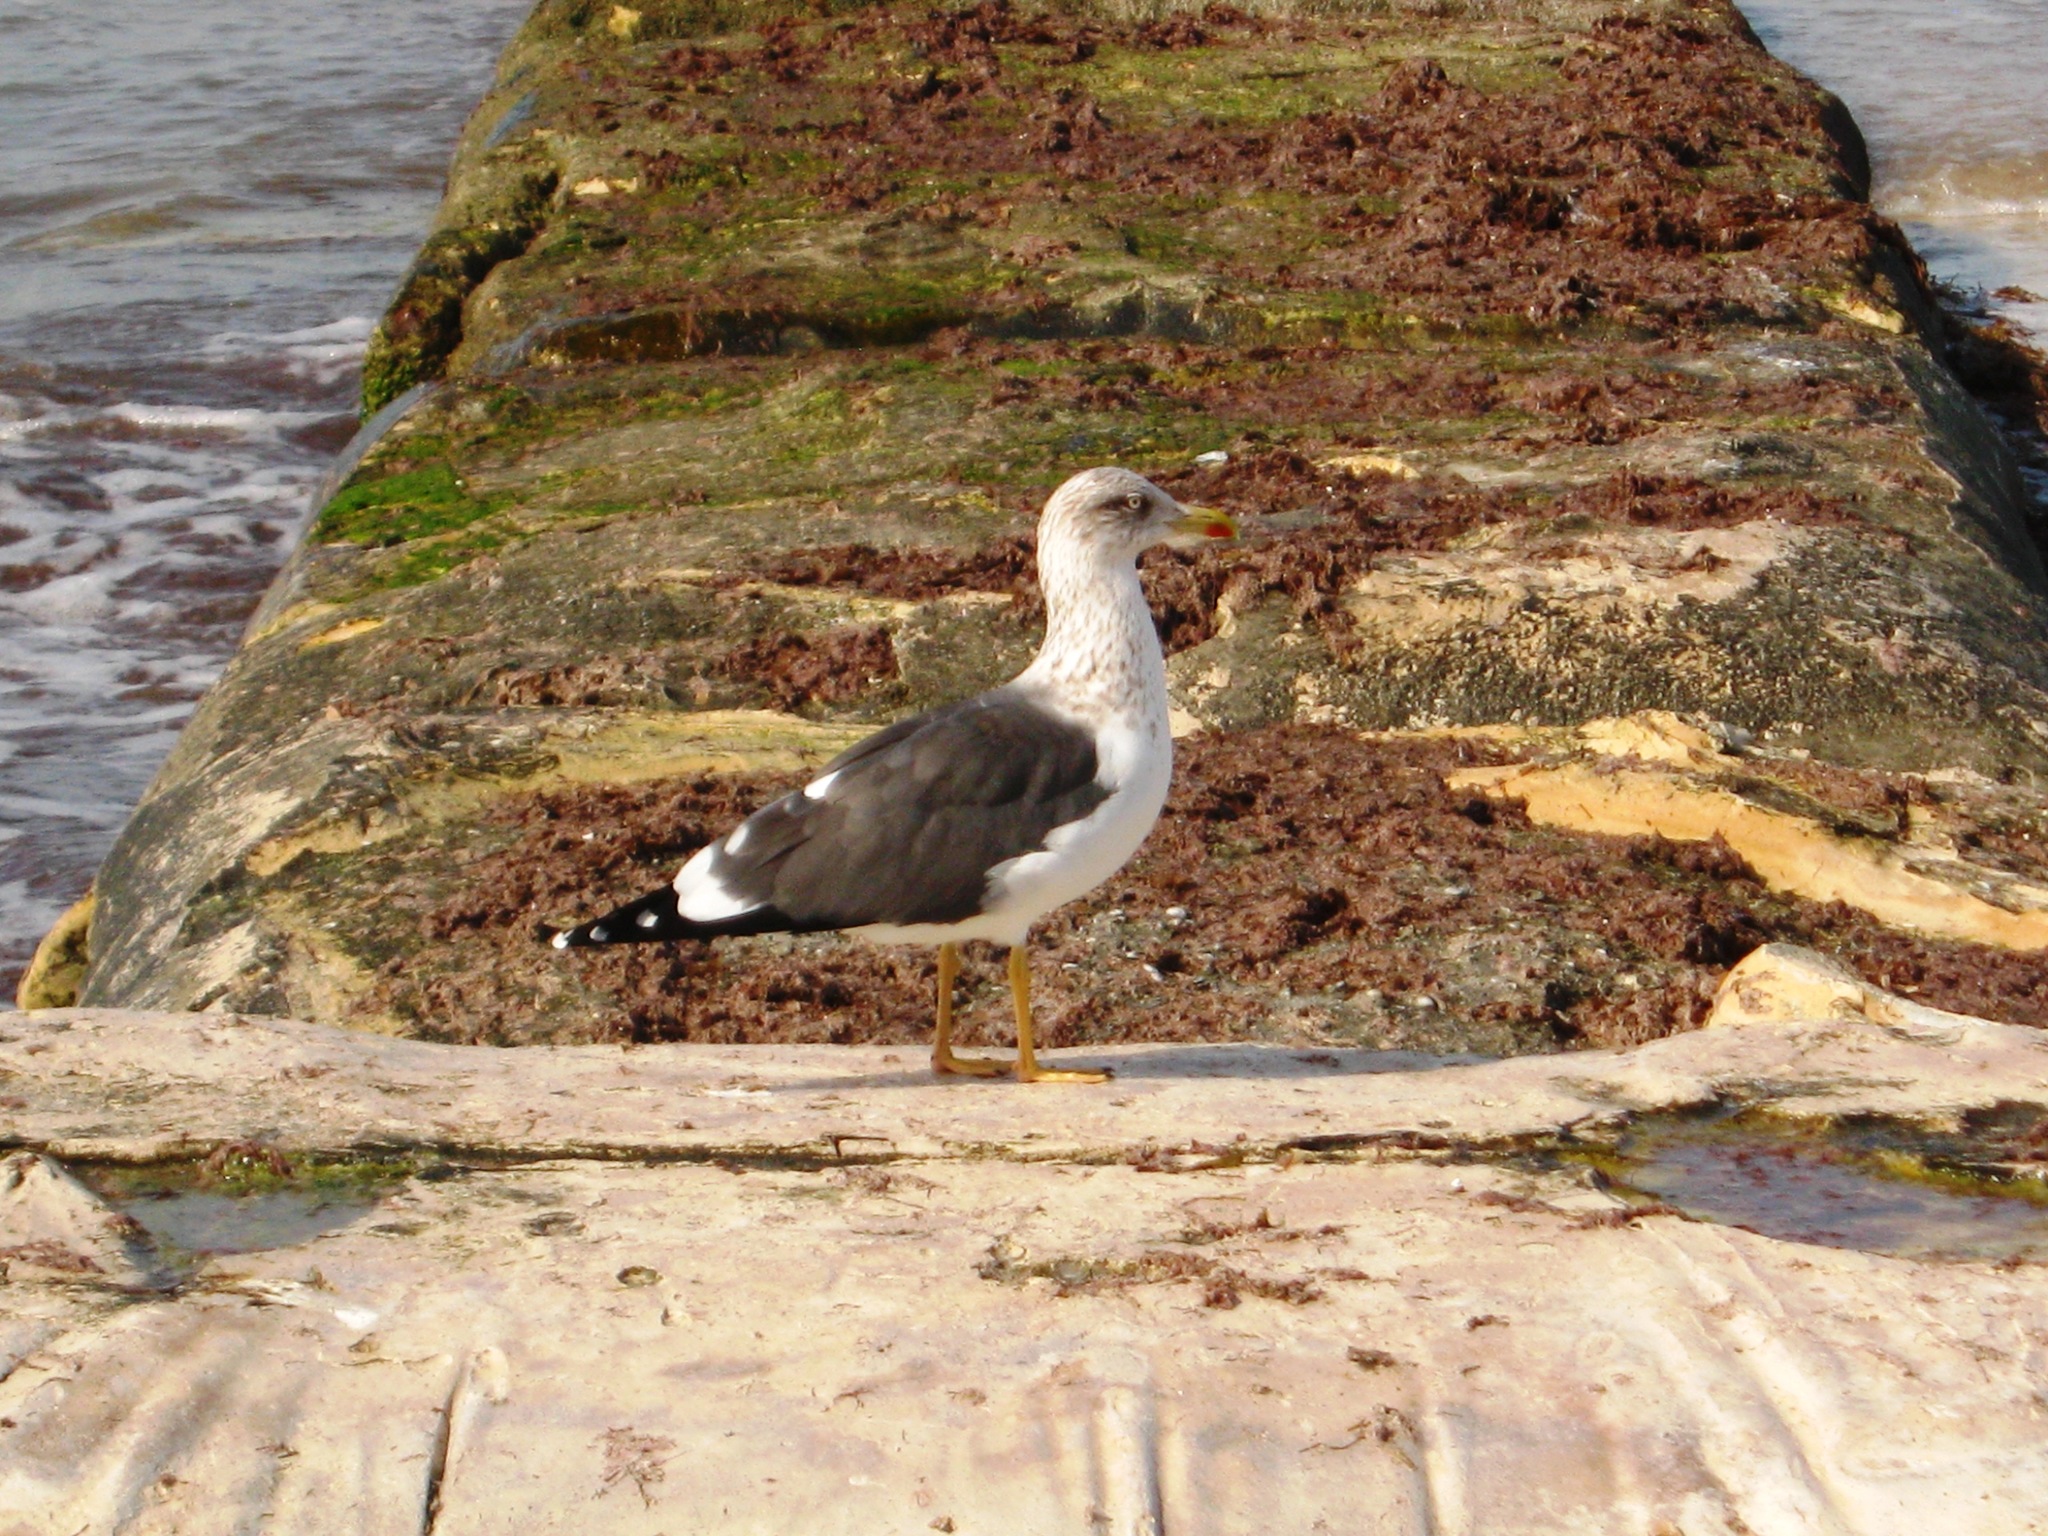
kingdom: Animalia
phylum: Chordata
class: Aves
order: Charadriiformes
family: Laridae
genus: Larus
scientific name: Larus fuscus
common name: Lesser black-backed gull
